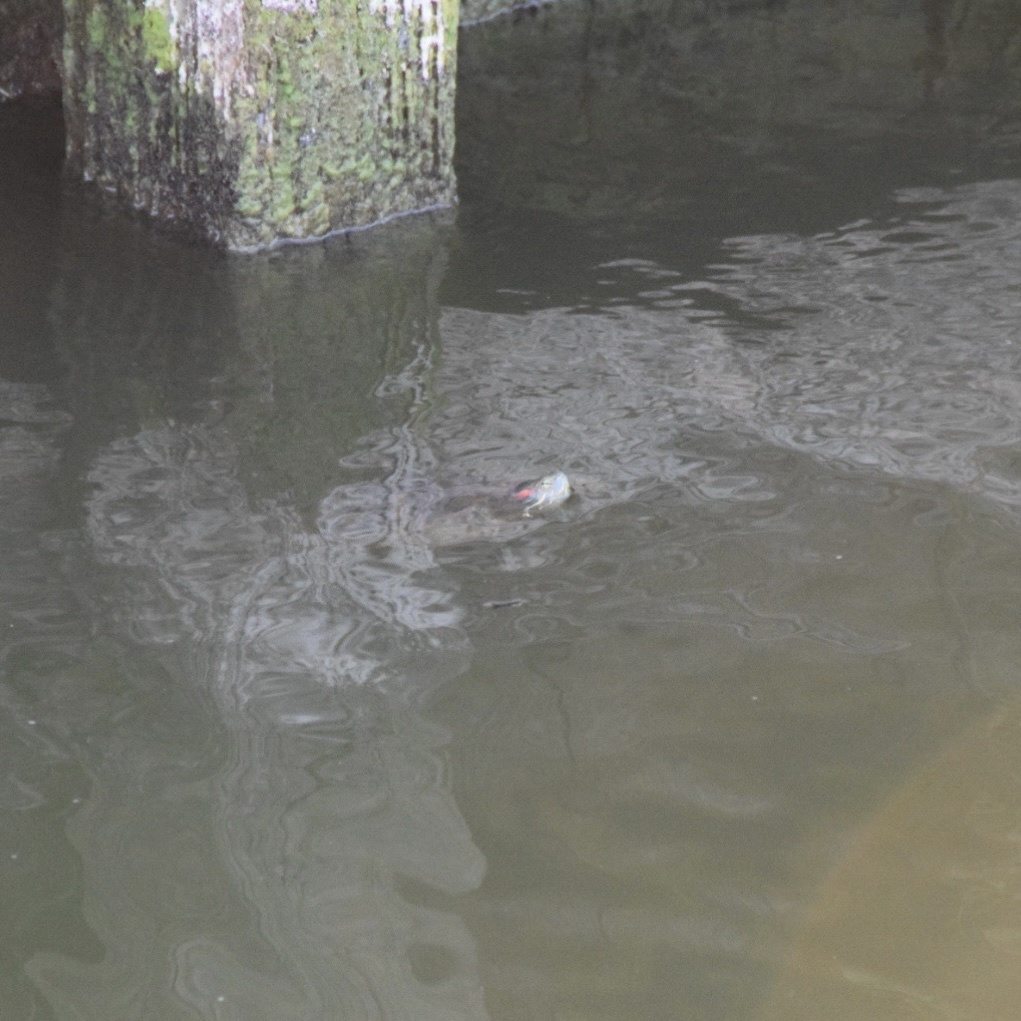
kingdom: Animalia
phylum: Chordata
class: Testudines
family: Emydidae
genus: Trachemys
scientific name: Trachemys scripta
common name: Slider
